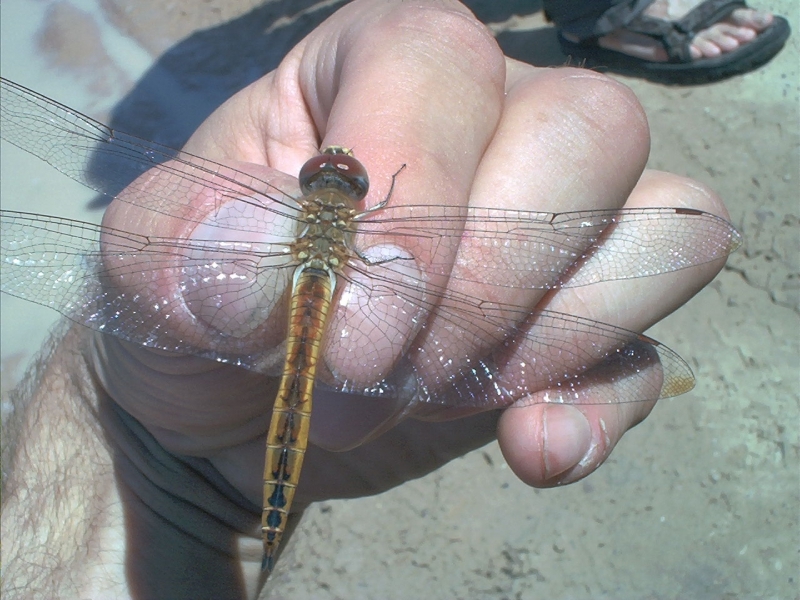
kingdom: Animalia
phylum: Arthropoda
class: Insecta
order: Odonata
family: Libellulidae
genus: Pantala
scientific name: Pantala flavescens
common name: Wandering glider
